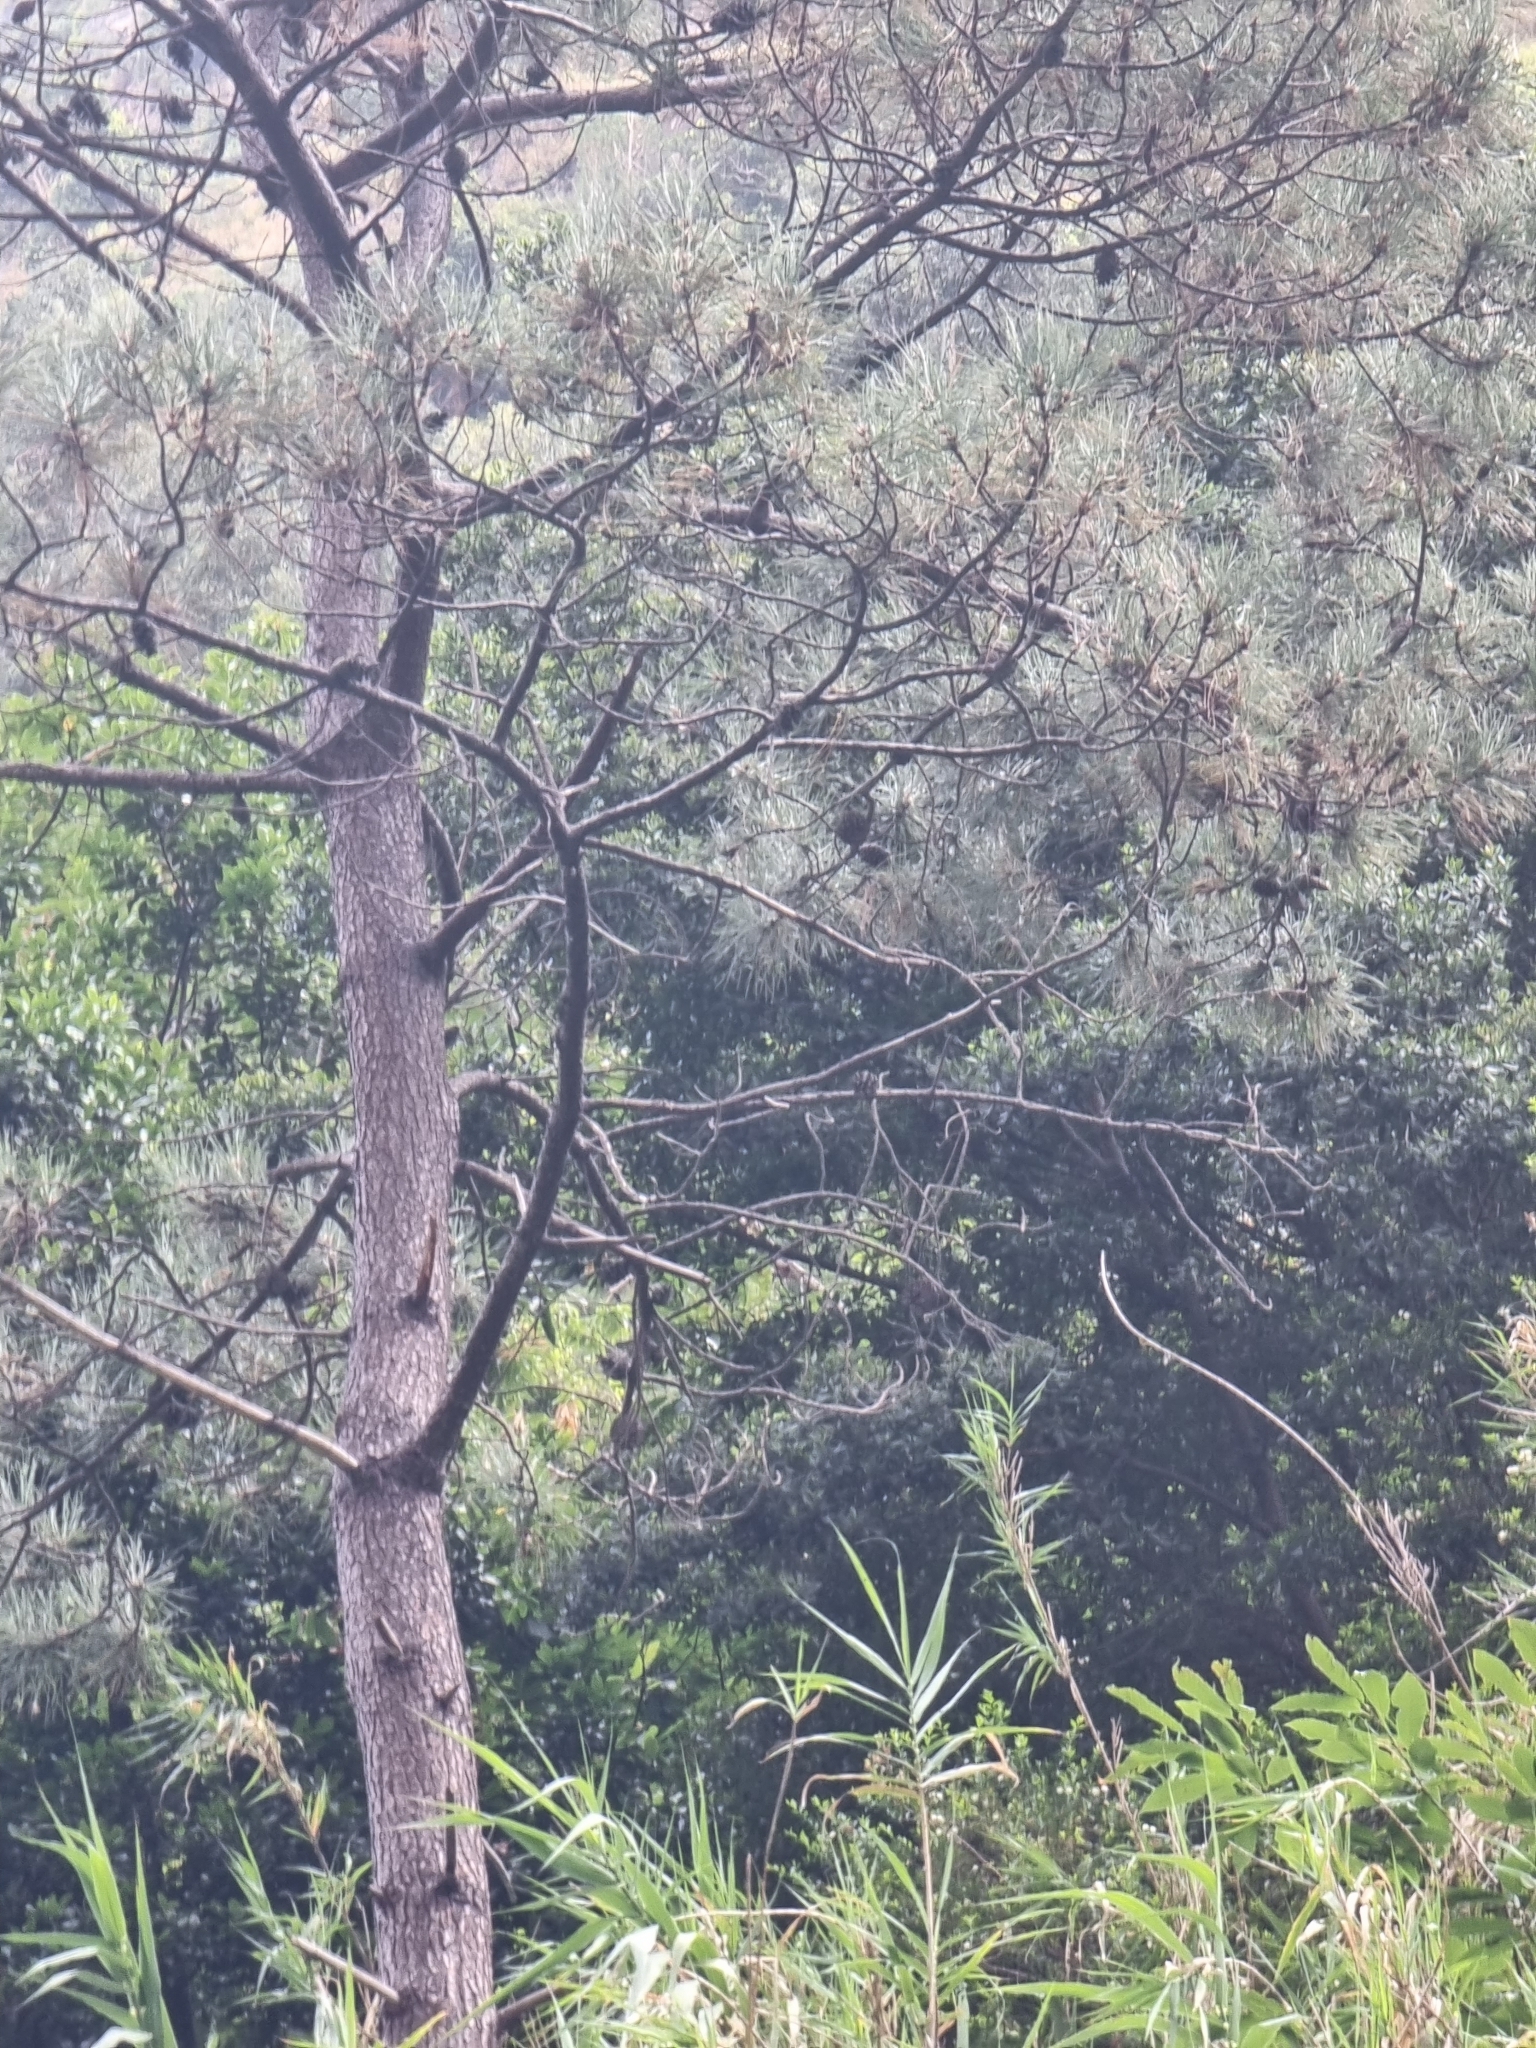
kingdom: Plantae
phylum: Tracheophyta
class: Pinopsida
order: Pinales
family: Pinaceae
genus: Pinus
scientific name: Pinus pinaster
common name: Maritime pine
